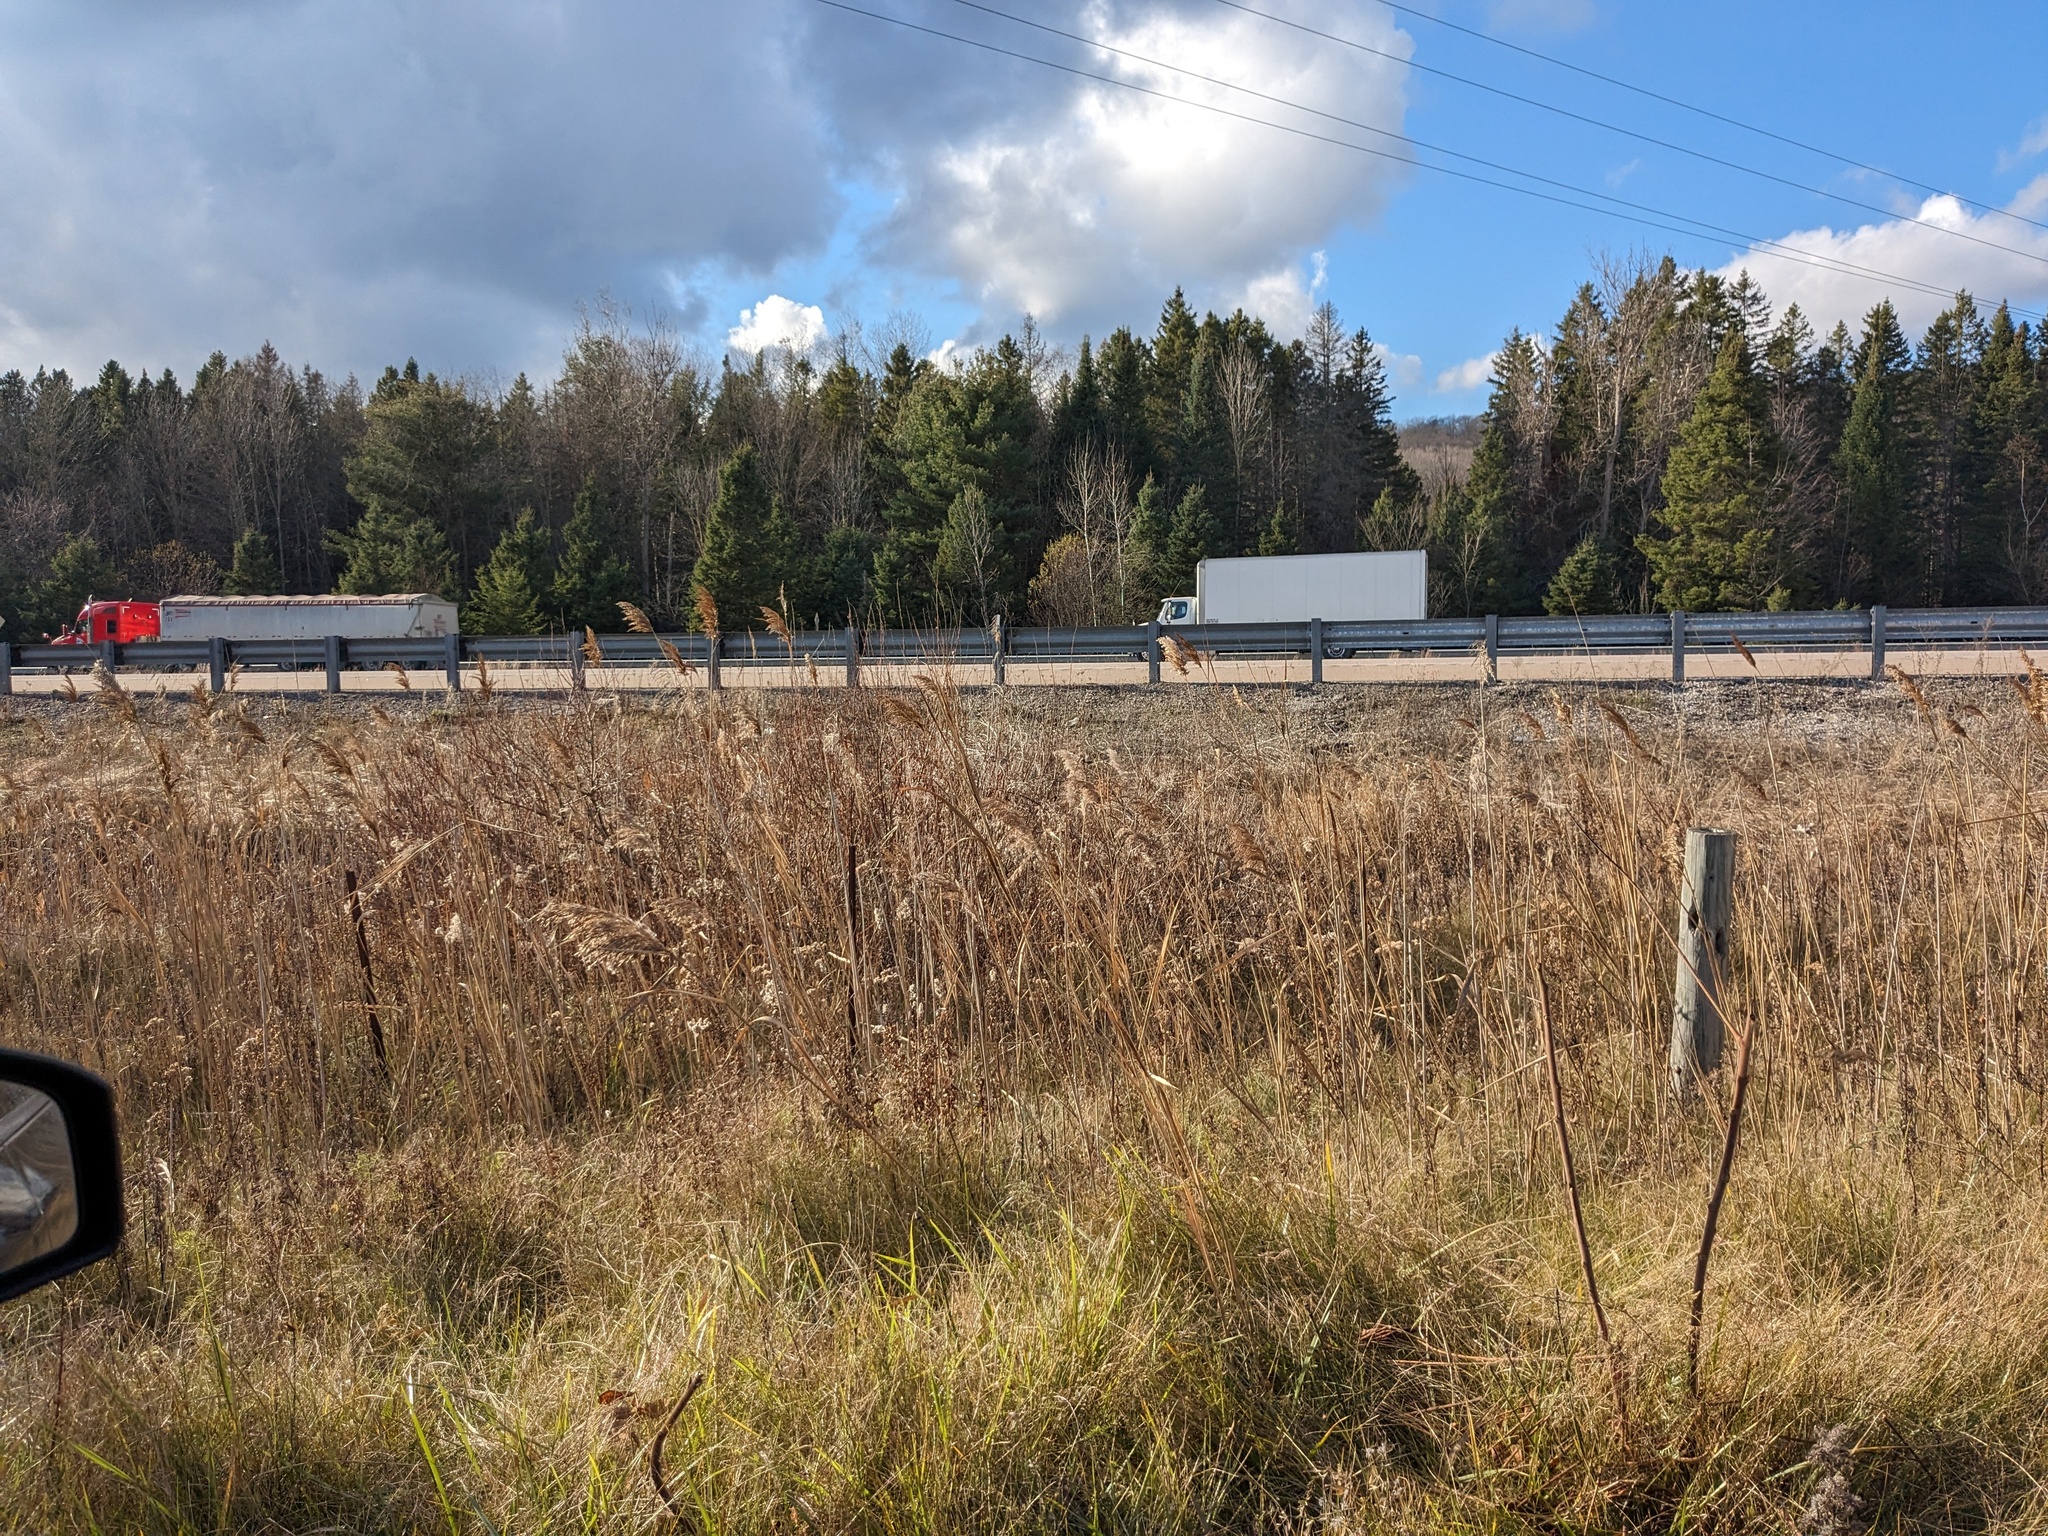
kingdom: Plantae
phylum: Tracheophyta
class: Liliopsida
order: Poales
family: Poaceae
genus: Phragmites
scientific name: Phragmites australis
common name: Common reed
